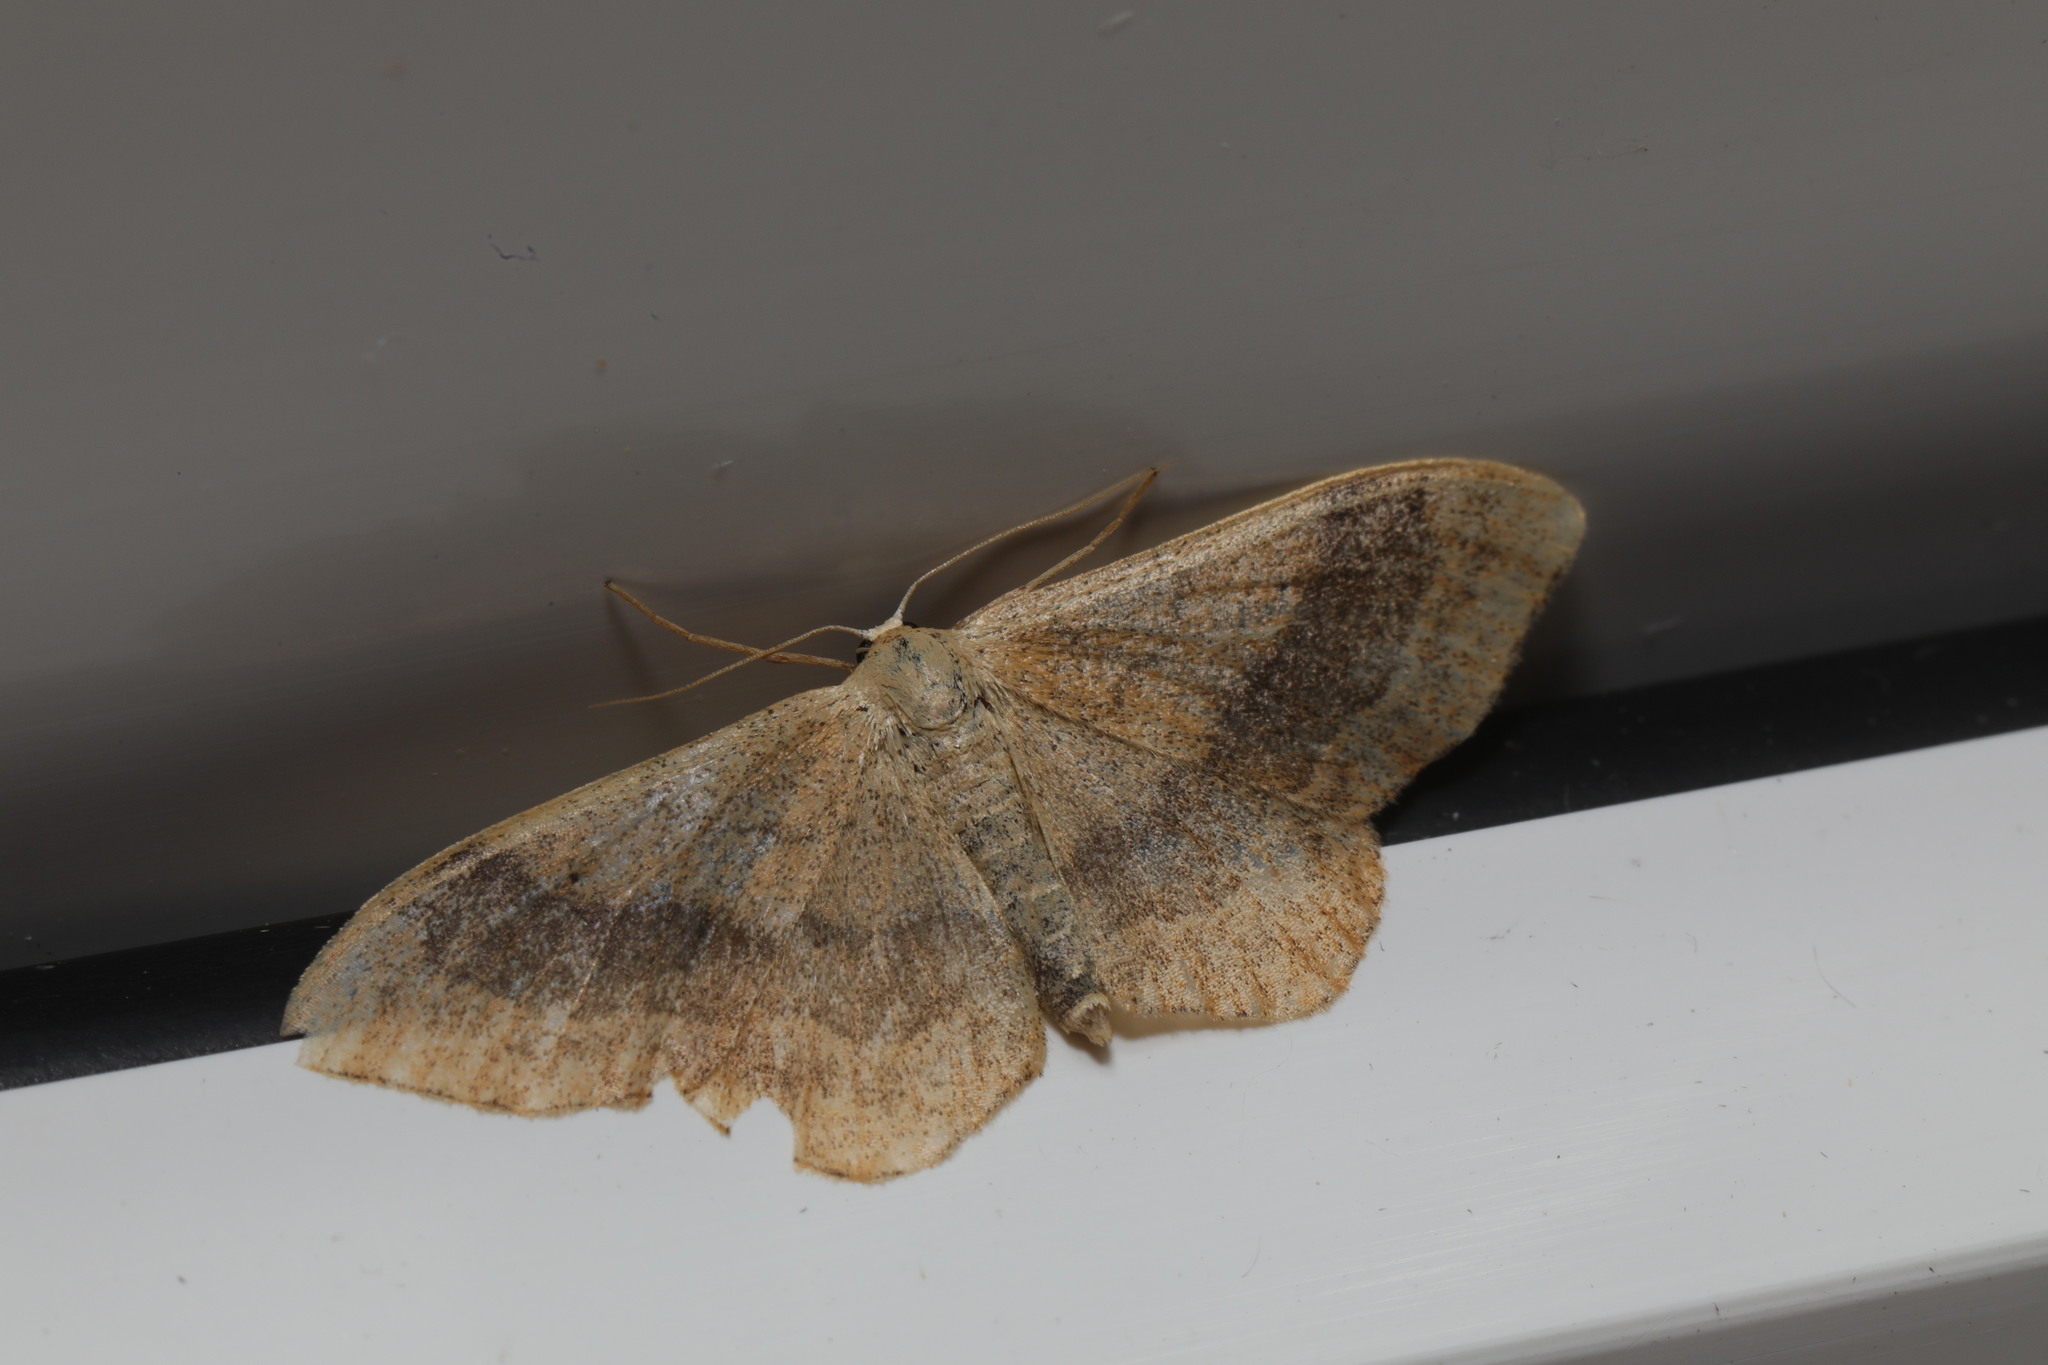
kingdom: Animalia
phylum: Arthropoda
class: Insecta
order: Lepidoptera
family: Geometridae
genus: Idaea
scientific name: Idaea aversata
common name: Riband wave
